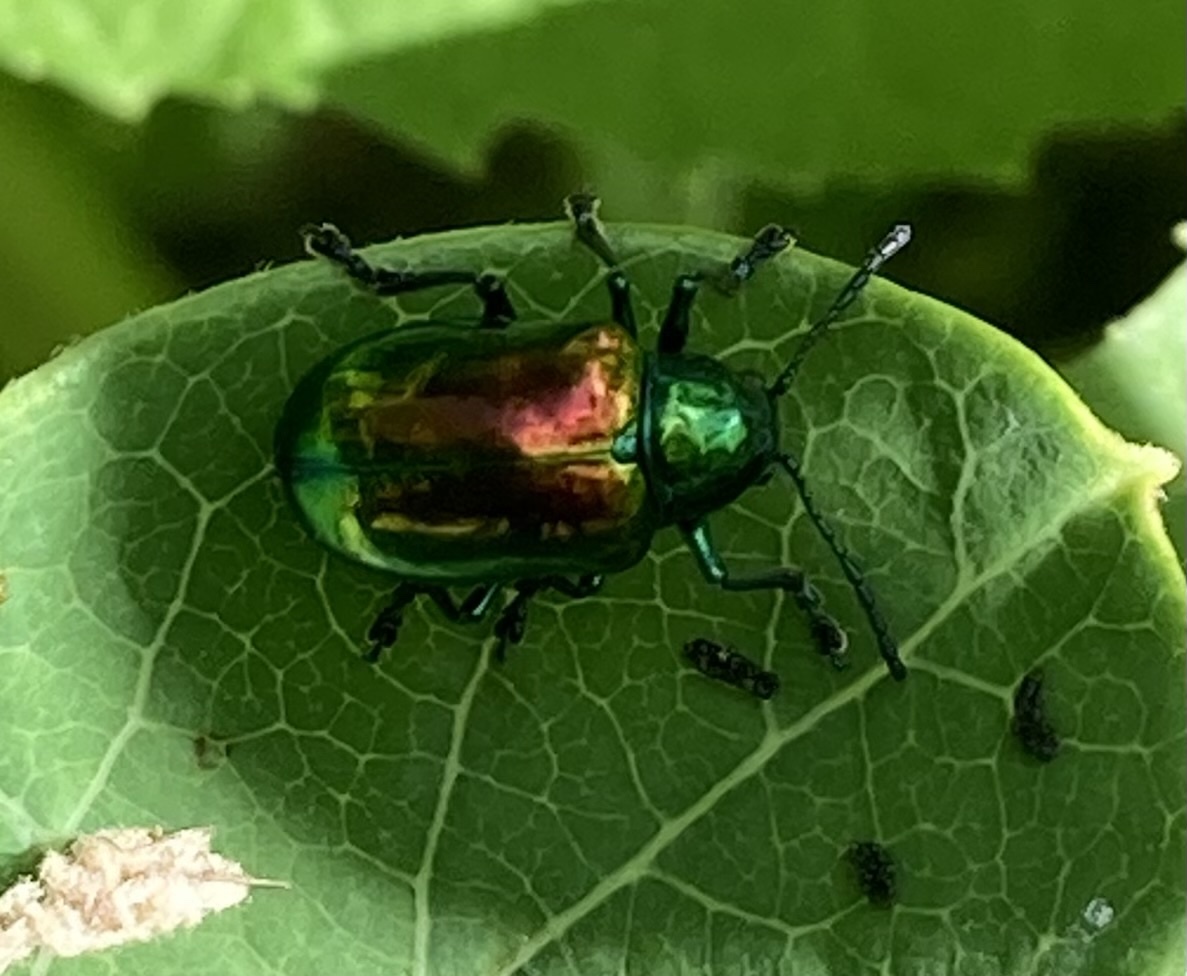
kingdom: Animalia
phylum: Arthropoda
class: Insecta
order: Coleoptera
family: Chrysomelidae
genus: Chrysochus
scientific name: Chrysochus auratus
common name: Dogbane leaf beetle
